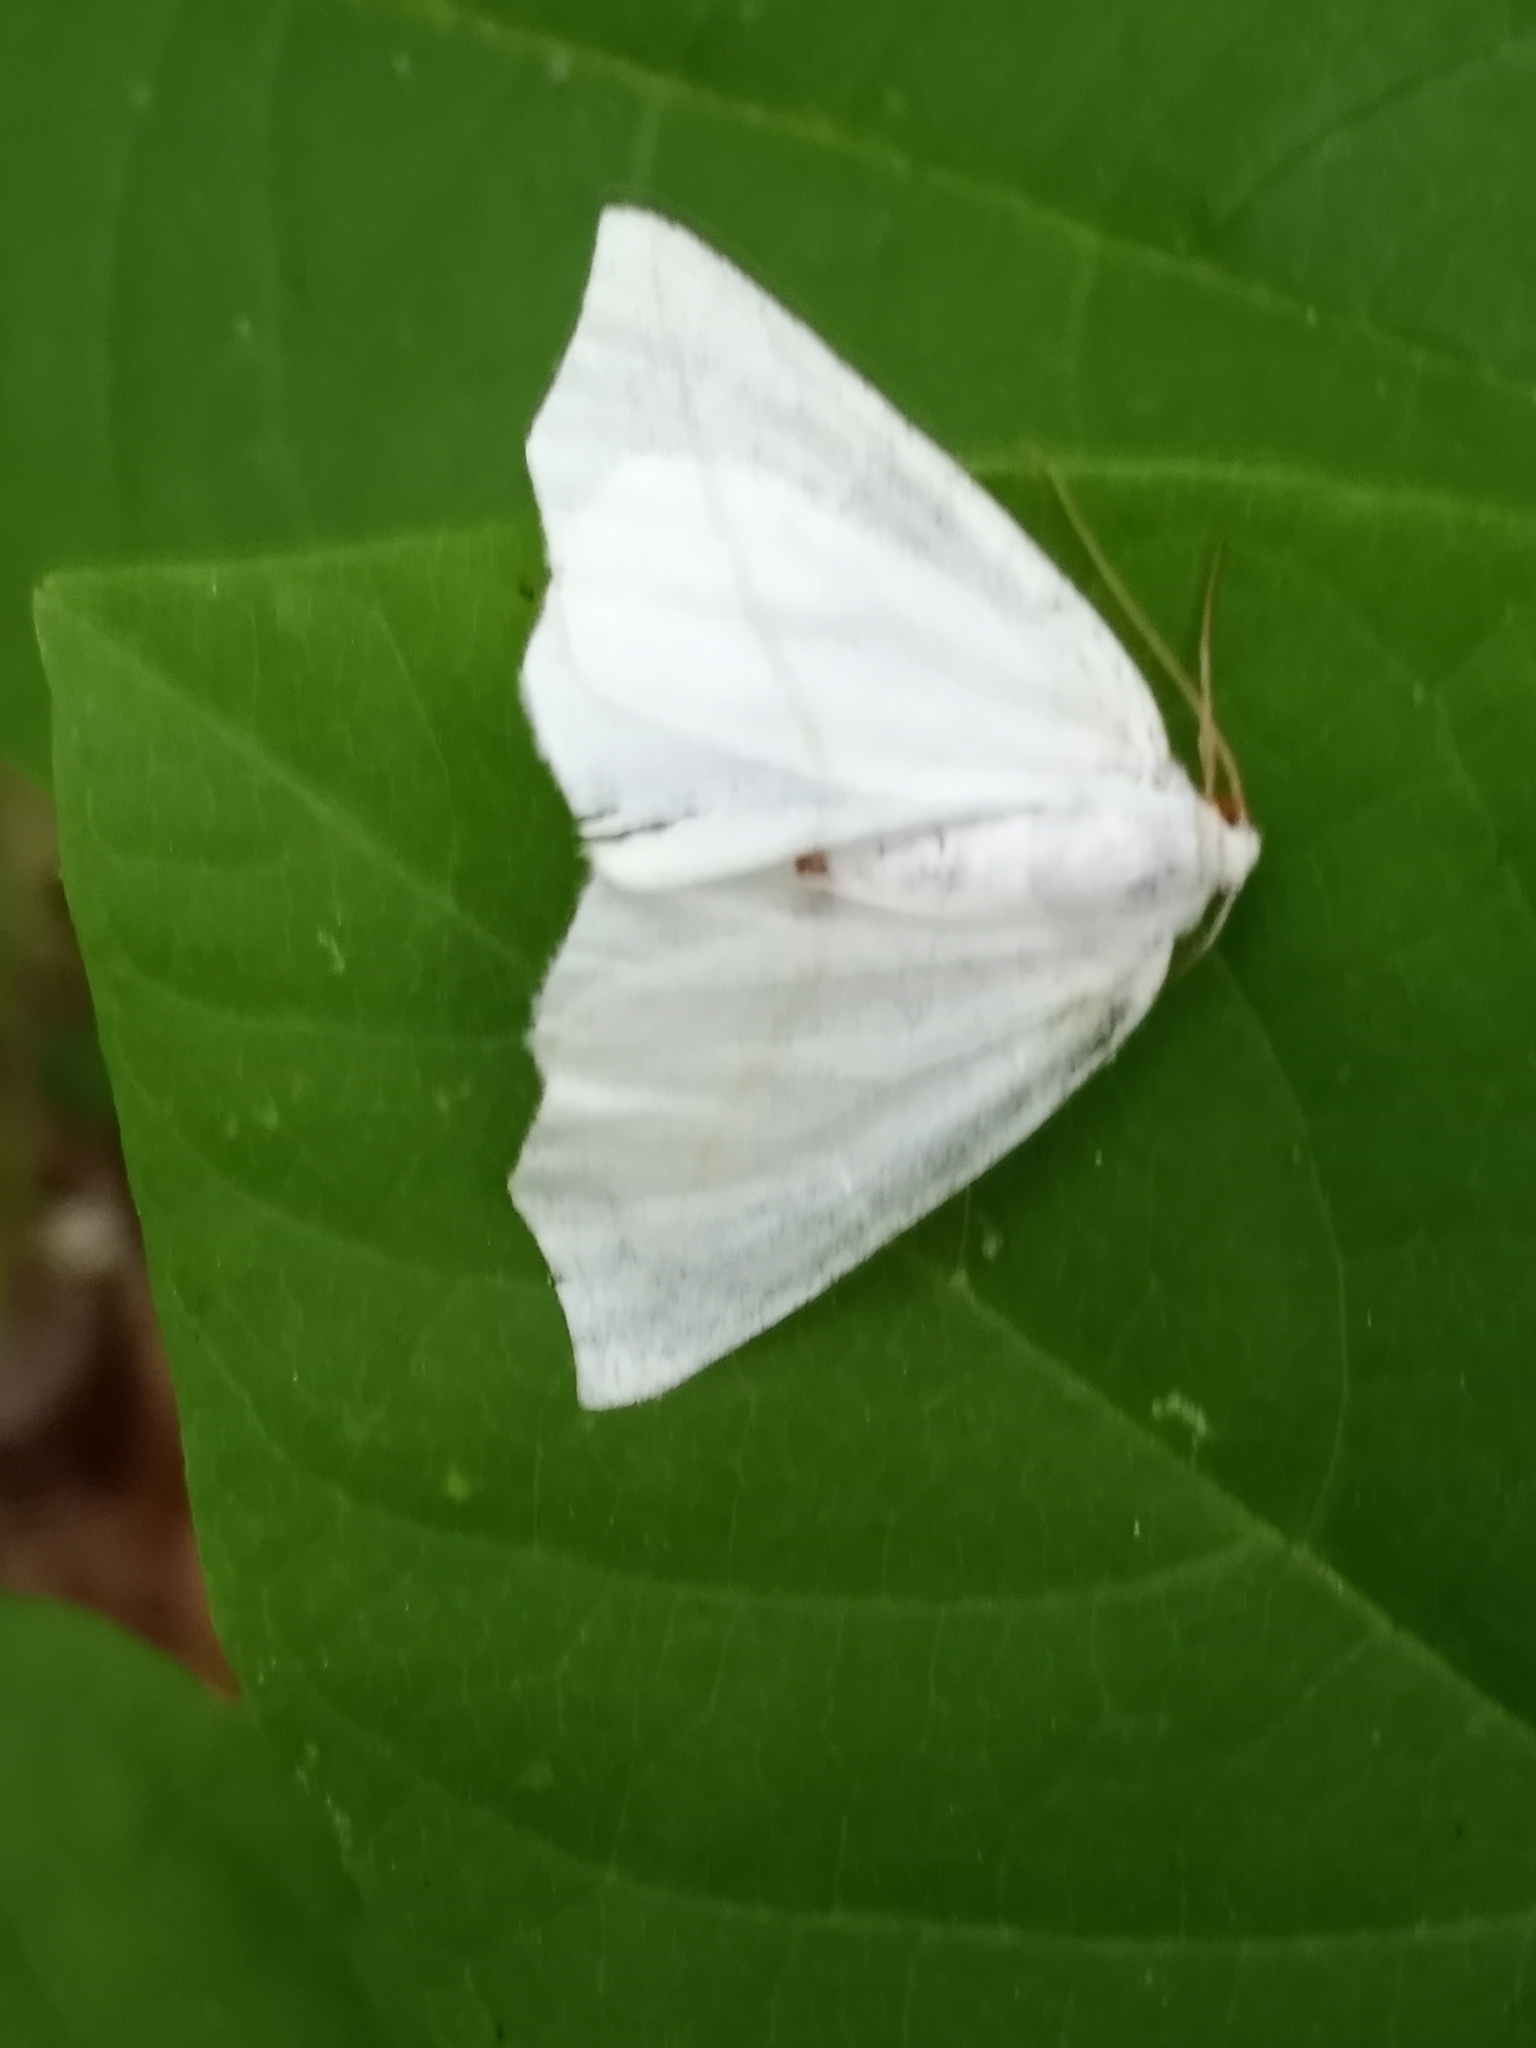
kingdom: Animalia
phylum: Arthropoda
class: Insecta
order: Lepidoptera
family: Geometridae
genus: Tetracis
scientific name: Tetracis cachexiata
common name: White slant-line
